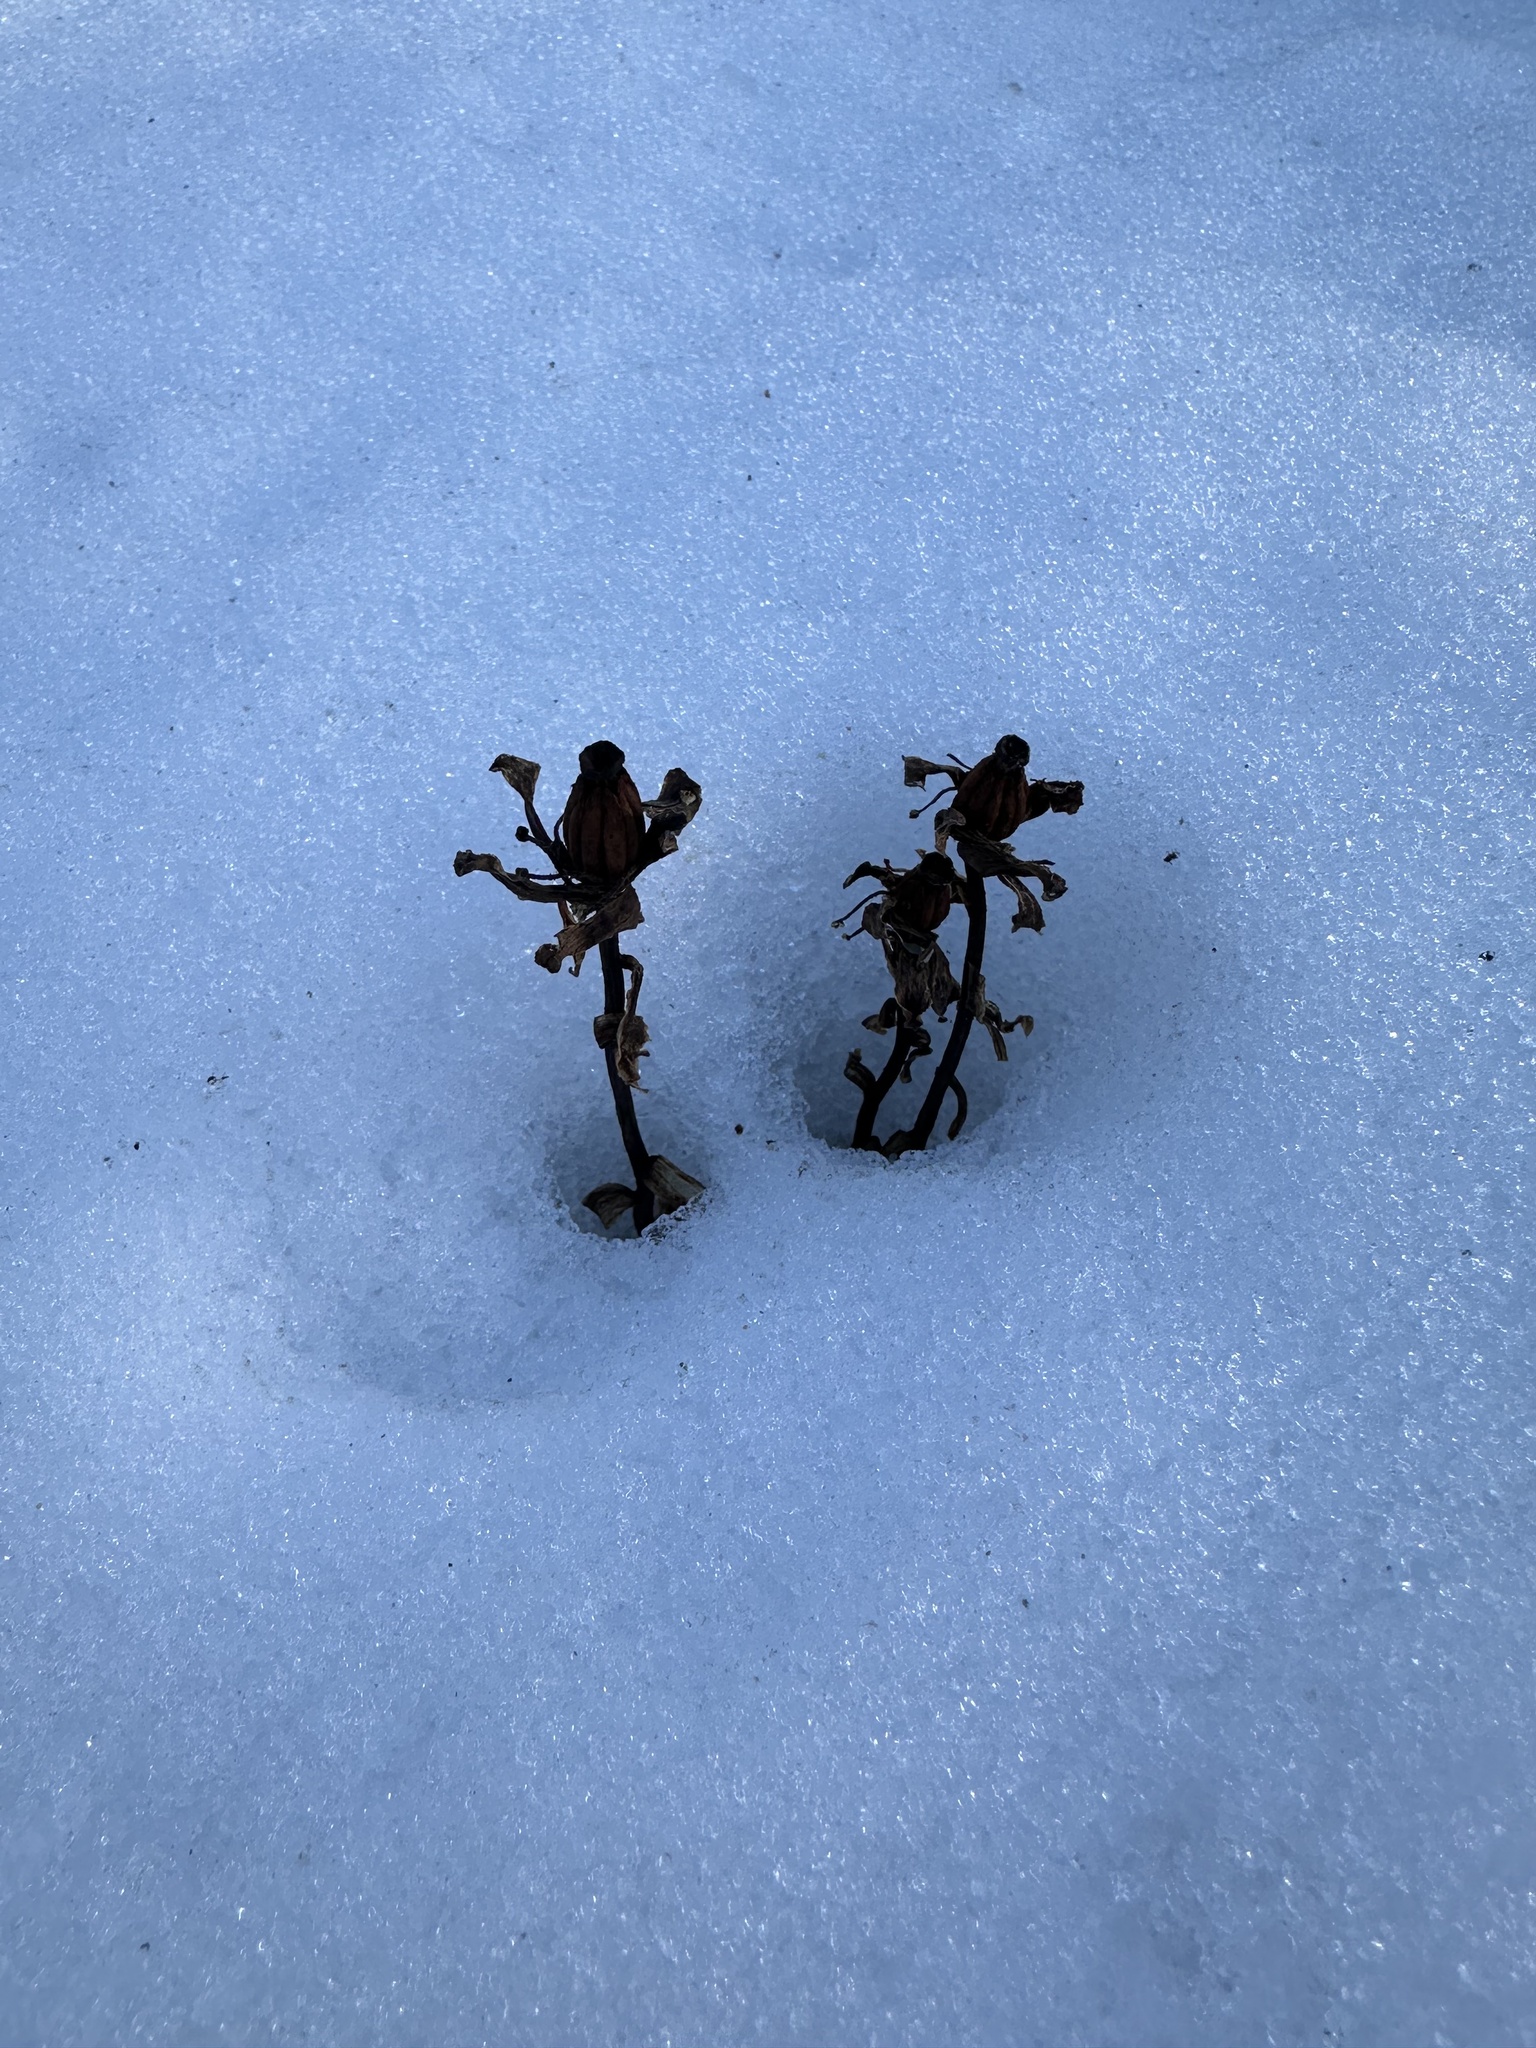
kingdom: Plantae
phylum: Tracheophyta
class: Magnoliopsida
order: Ericales
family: Ericaceae
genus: Monotropa
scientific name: Monotropa uniflora
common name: Convulsion root
